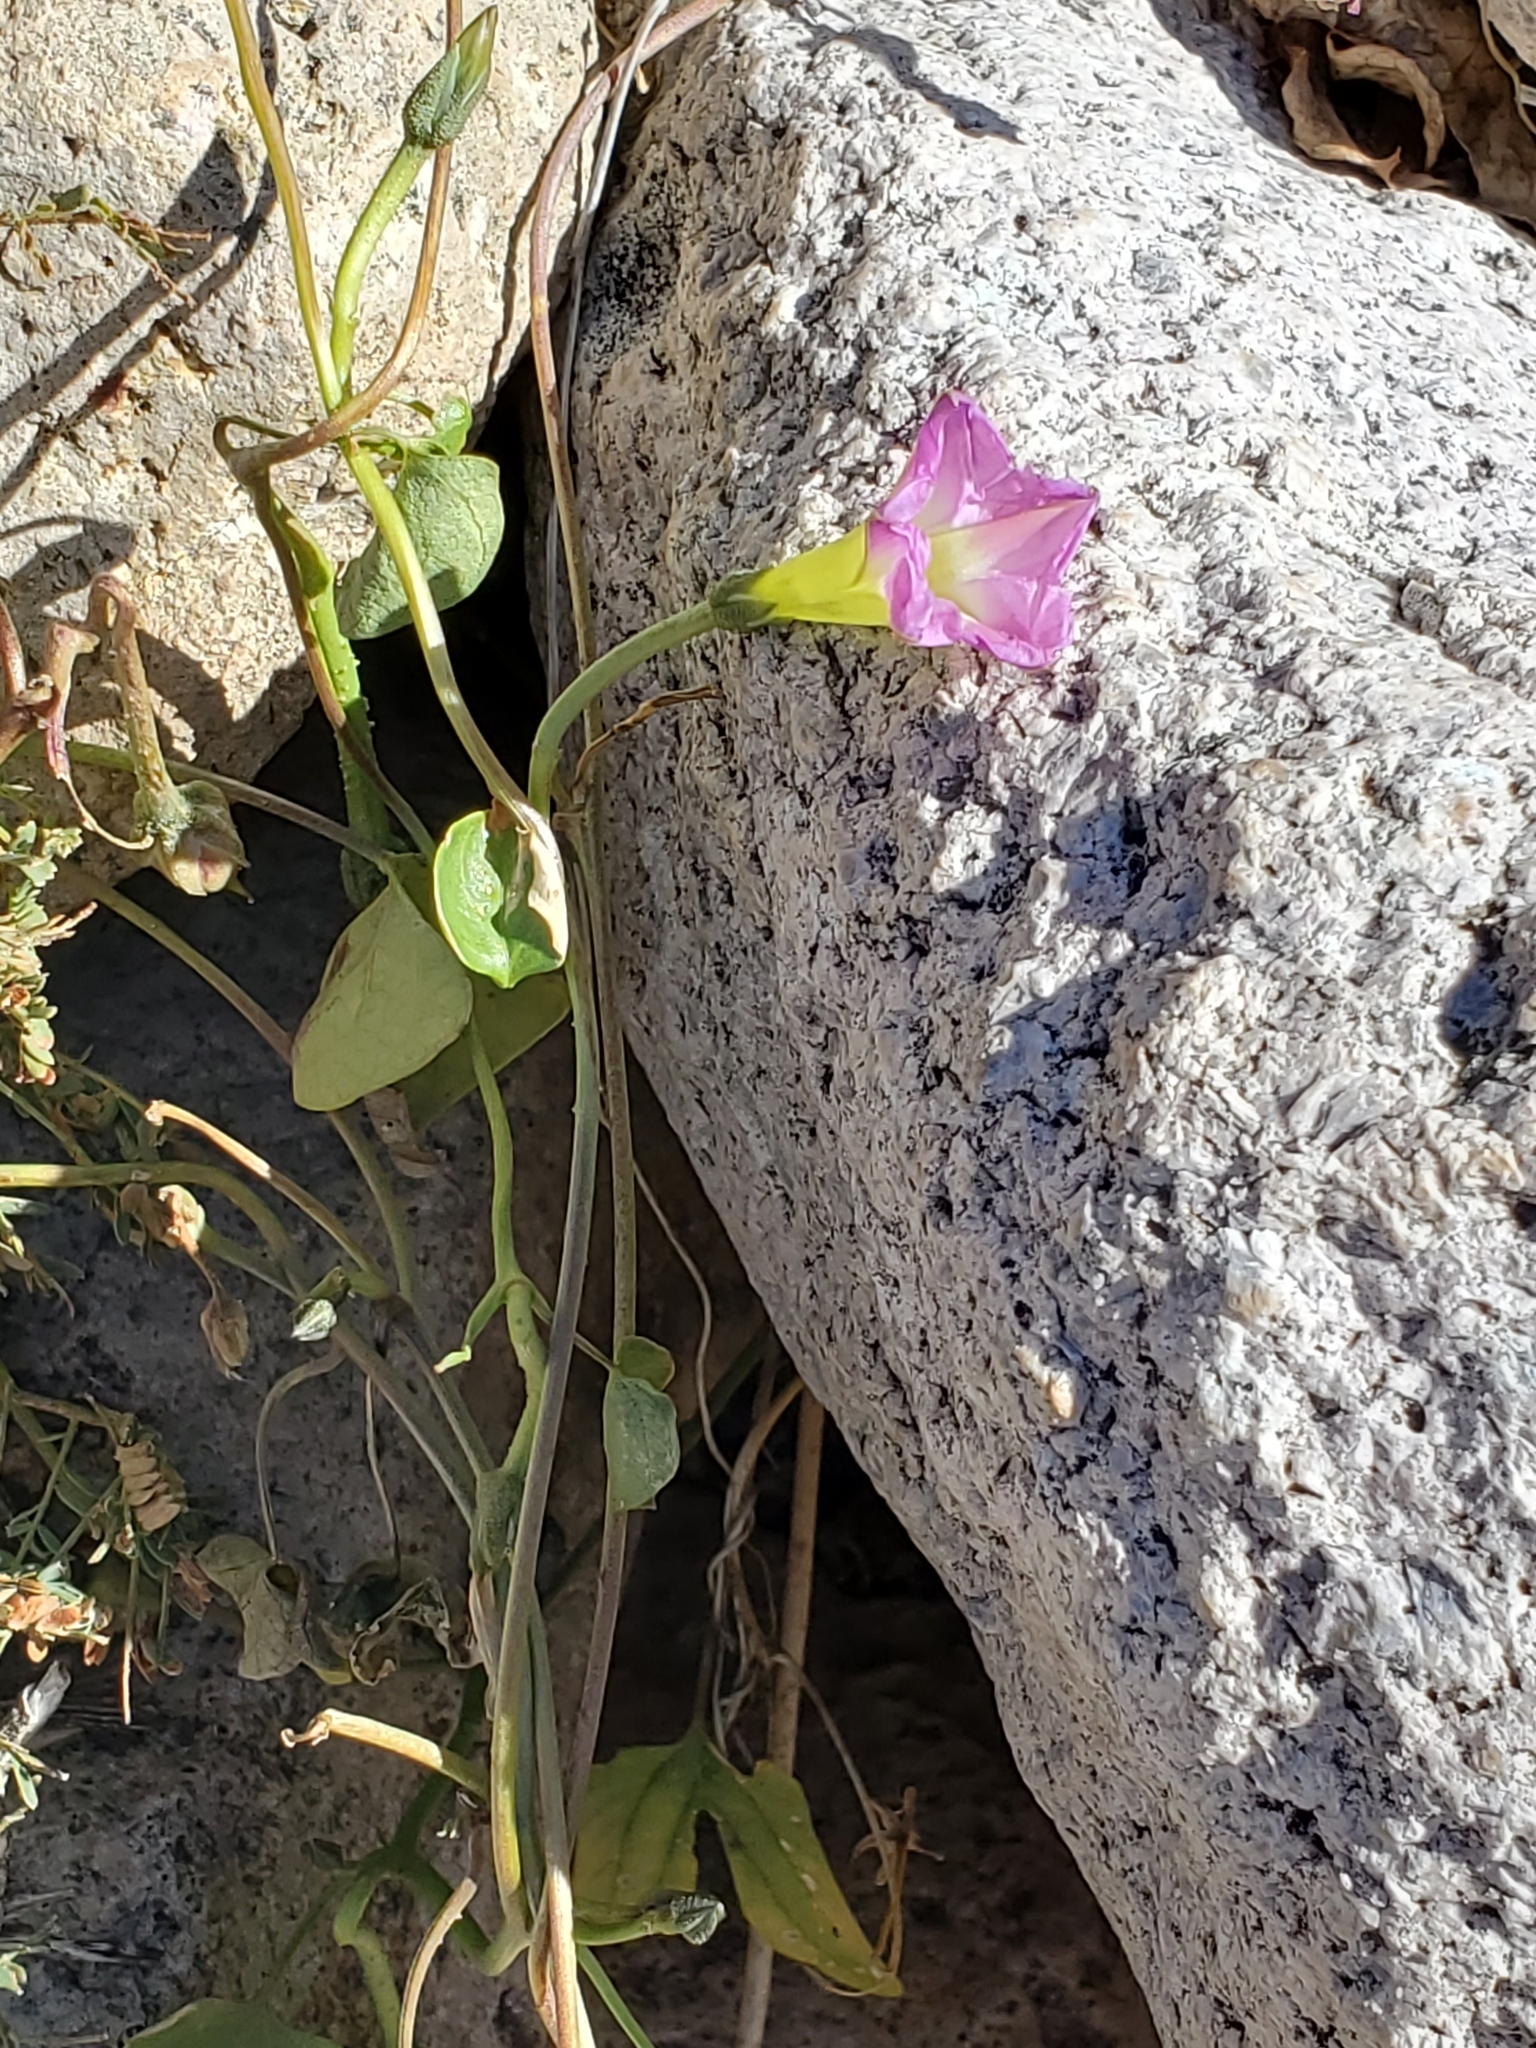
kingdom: Plantae
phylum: Tracheophyta
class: Magnoliopsida
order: Solanales
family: Convolvulaceae
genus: Ipomoea
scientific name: Ipomoea cardiophylla
